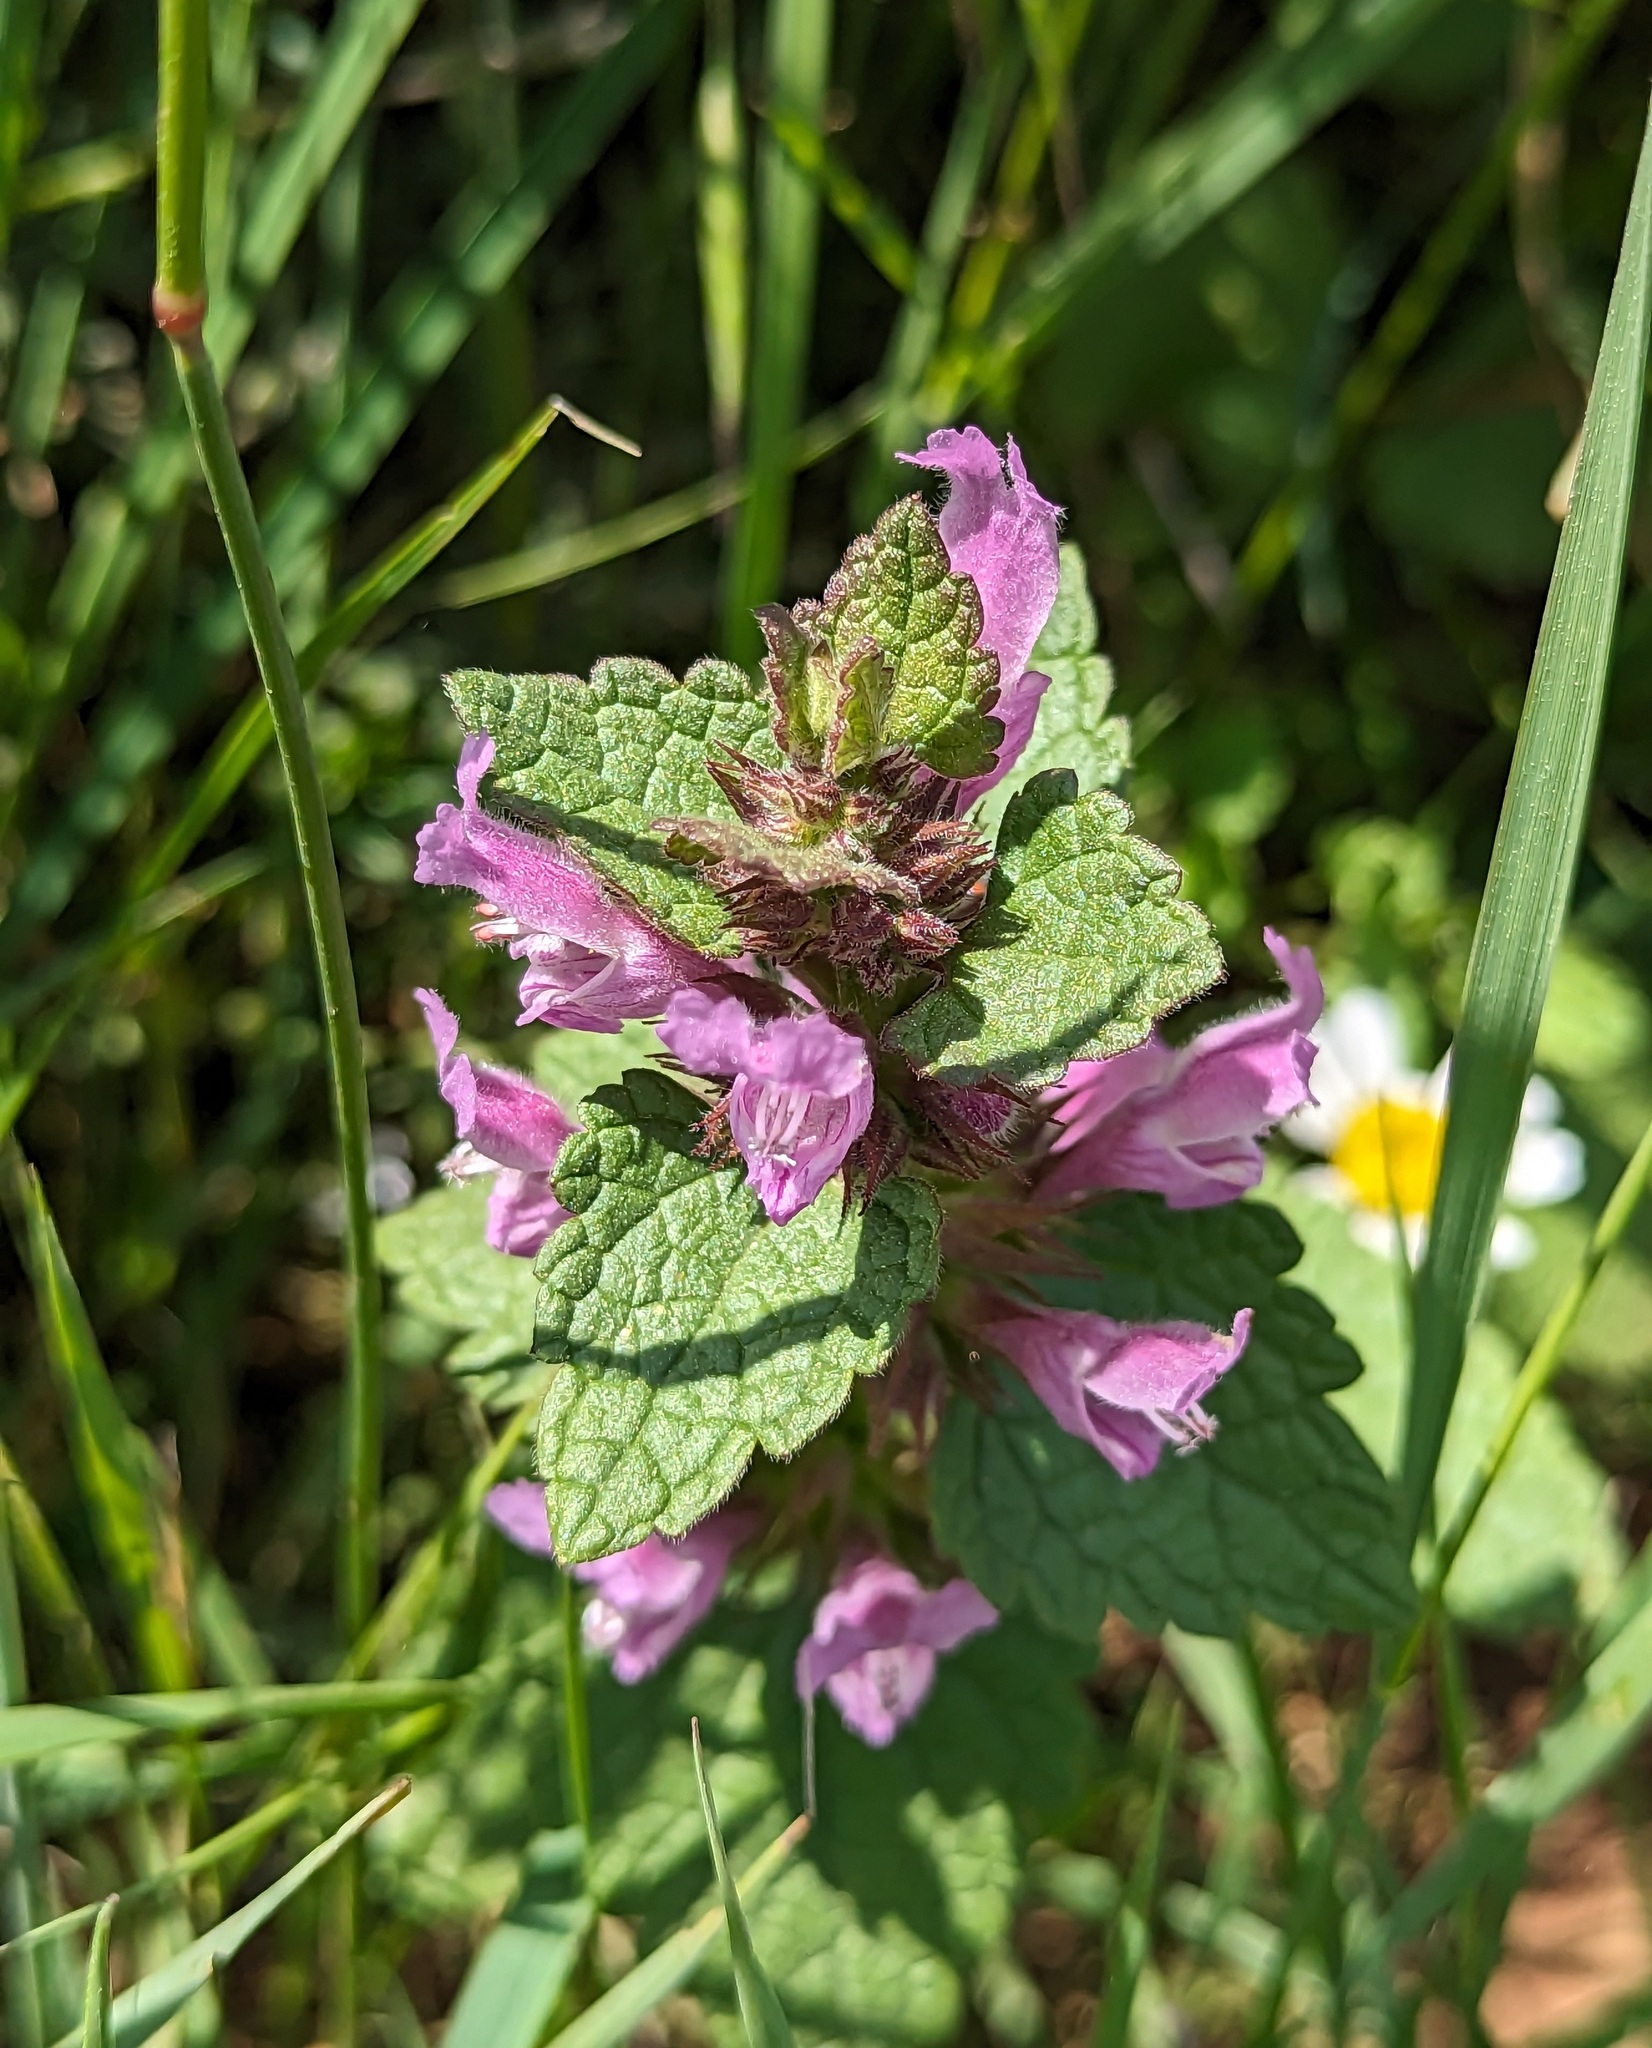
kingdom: Plantae
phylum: Tracheophyta
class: Magnoliopsida
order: Lamiales
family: Lamiaceae
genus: Lamium
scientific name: Lamium garganicum
